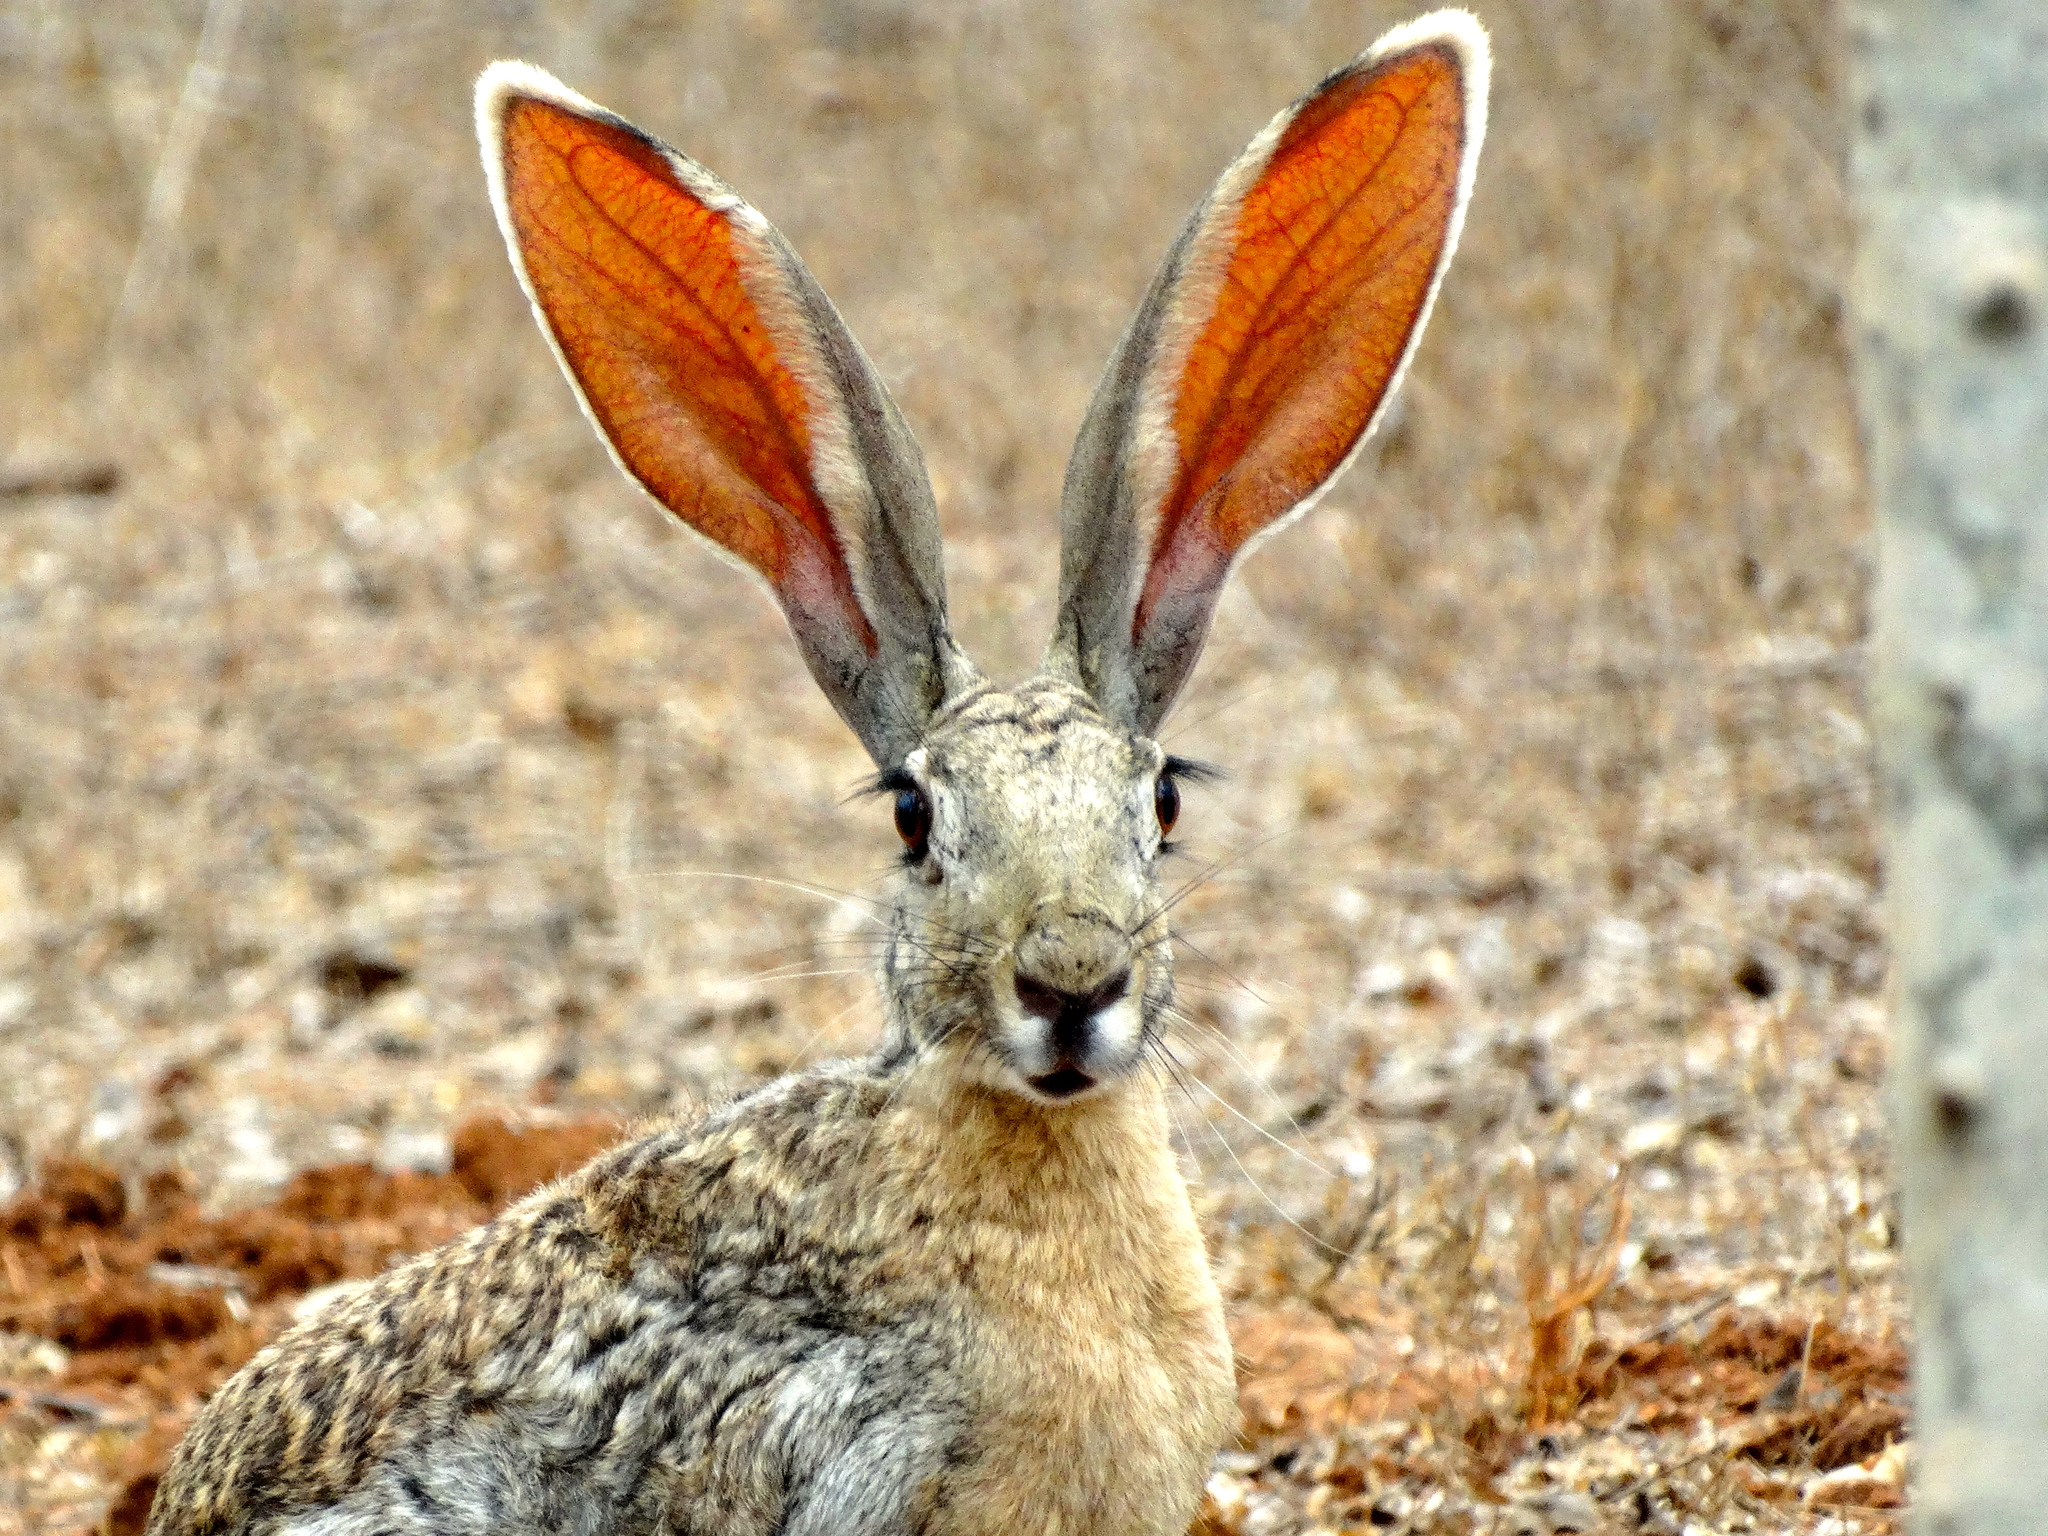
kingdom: Animalia
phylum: Chordata
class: Mammalia
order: Lagomorpha
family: Leporidae
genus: Lepus
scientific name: Lepus alleni
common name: Antelope jackrabbit
